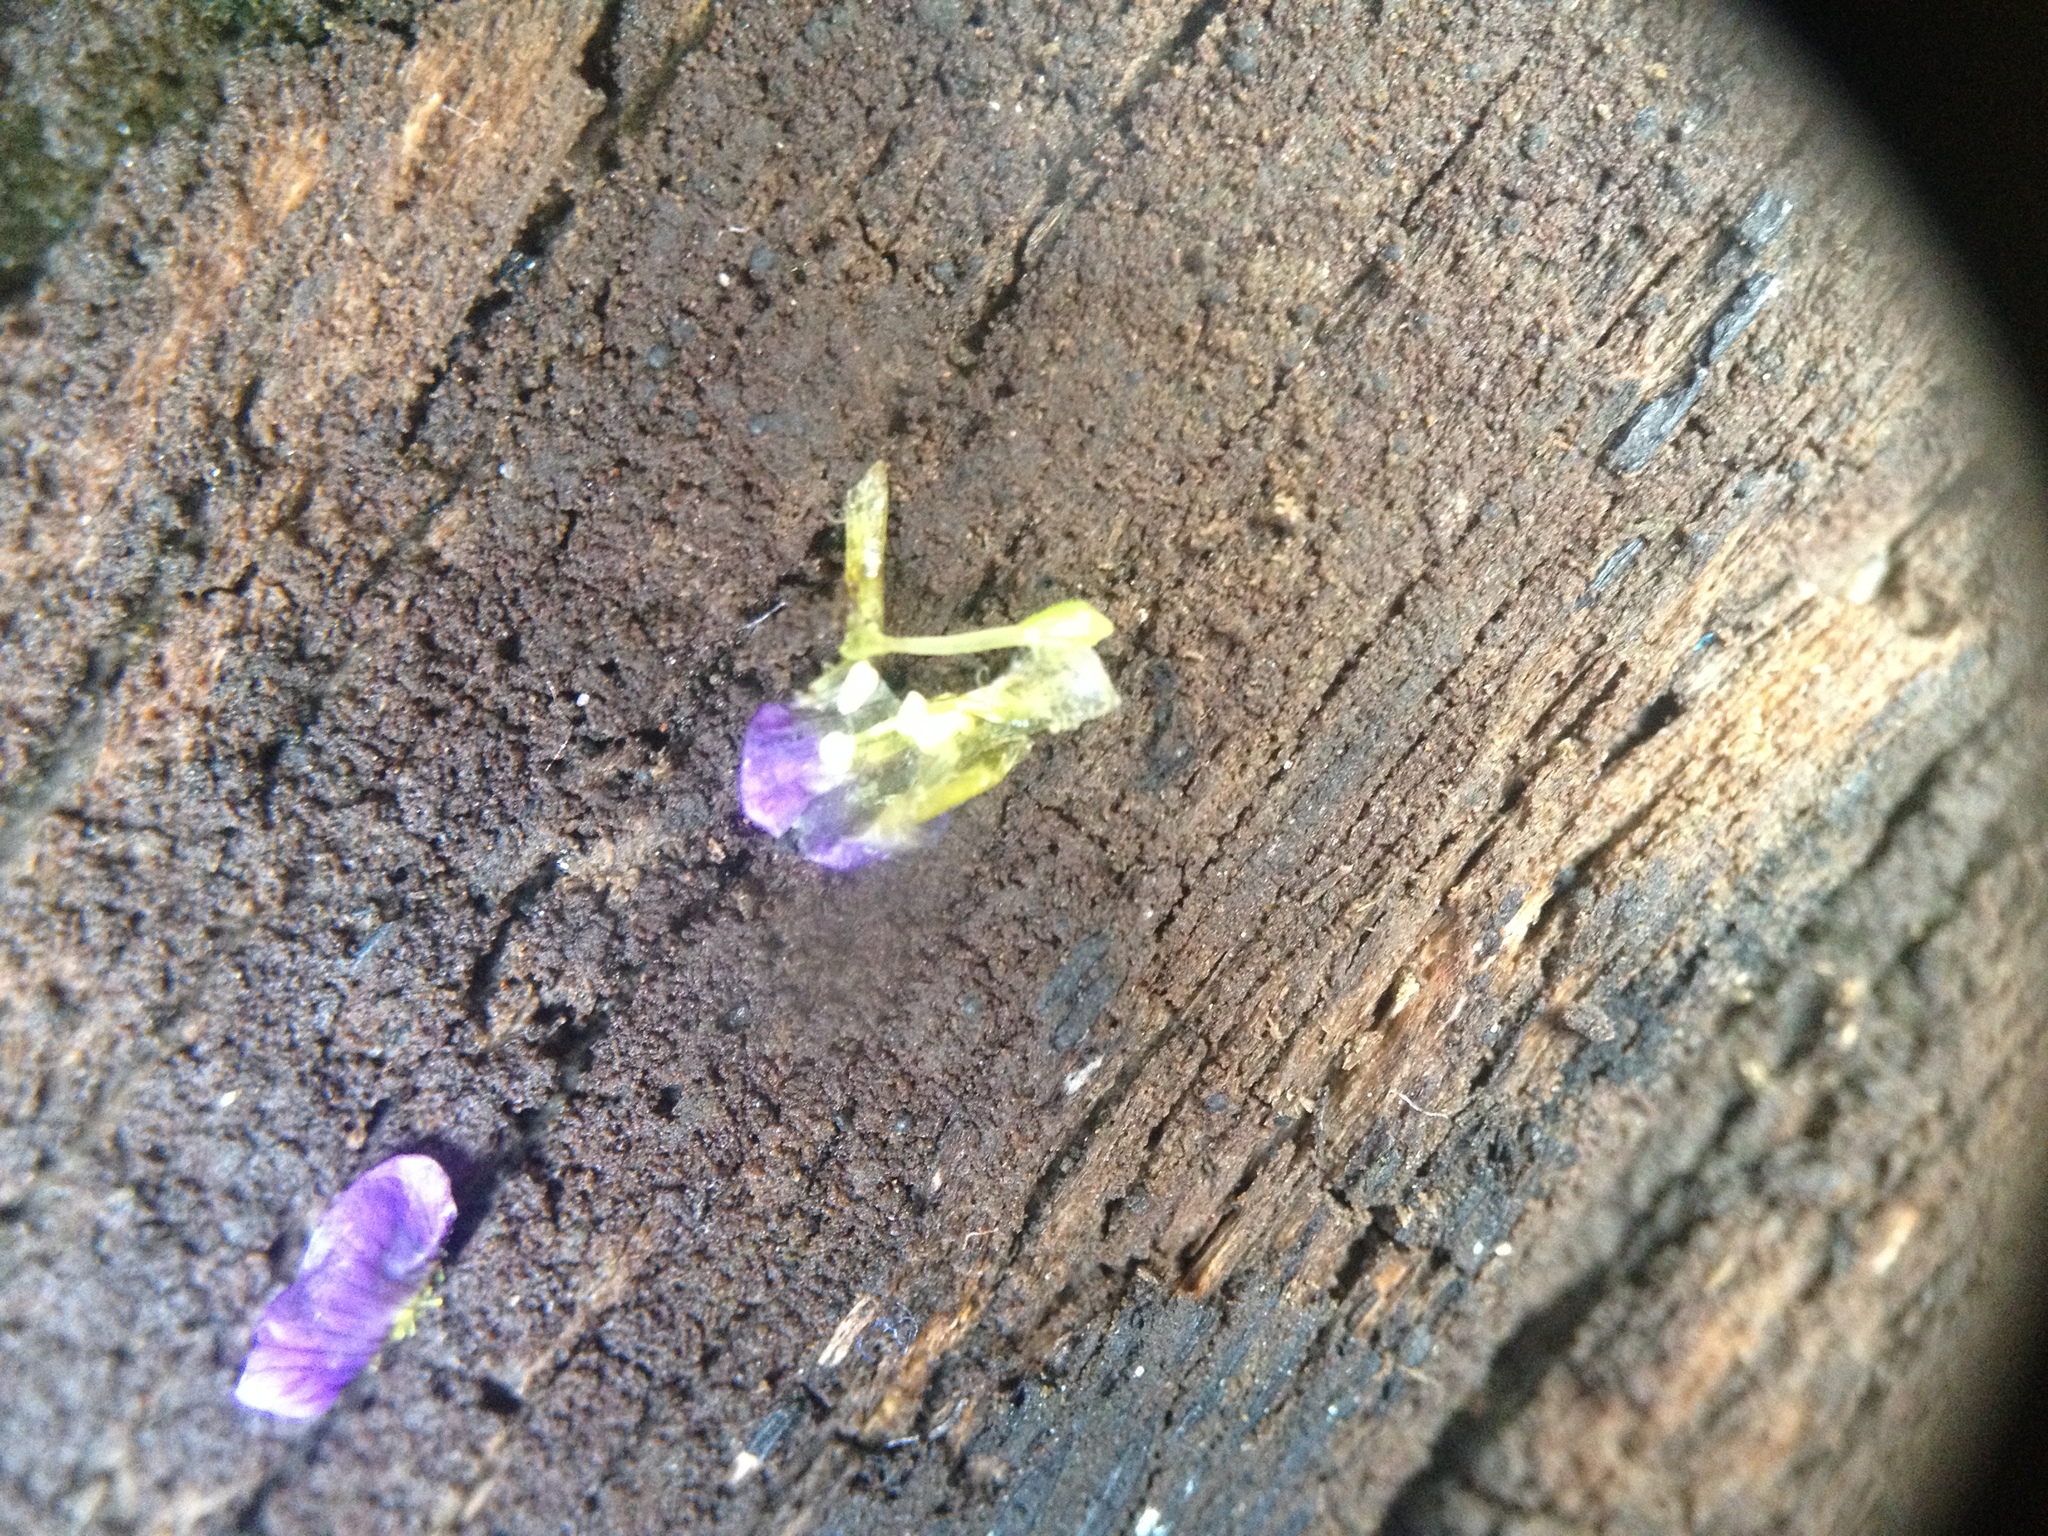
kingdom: Plantae
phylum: Tracheophyta
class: Magnoliopsida
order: Lamiales
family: Plantaginaceae
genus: Stemodia
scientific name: Stemodia verticillata
